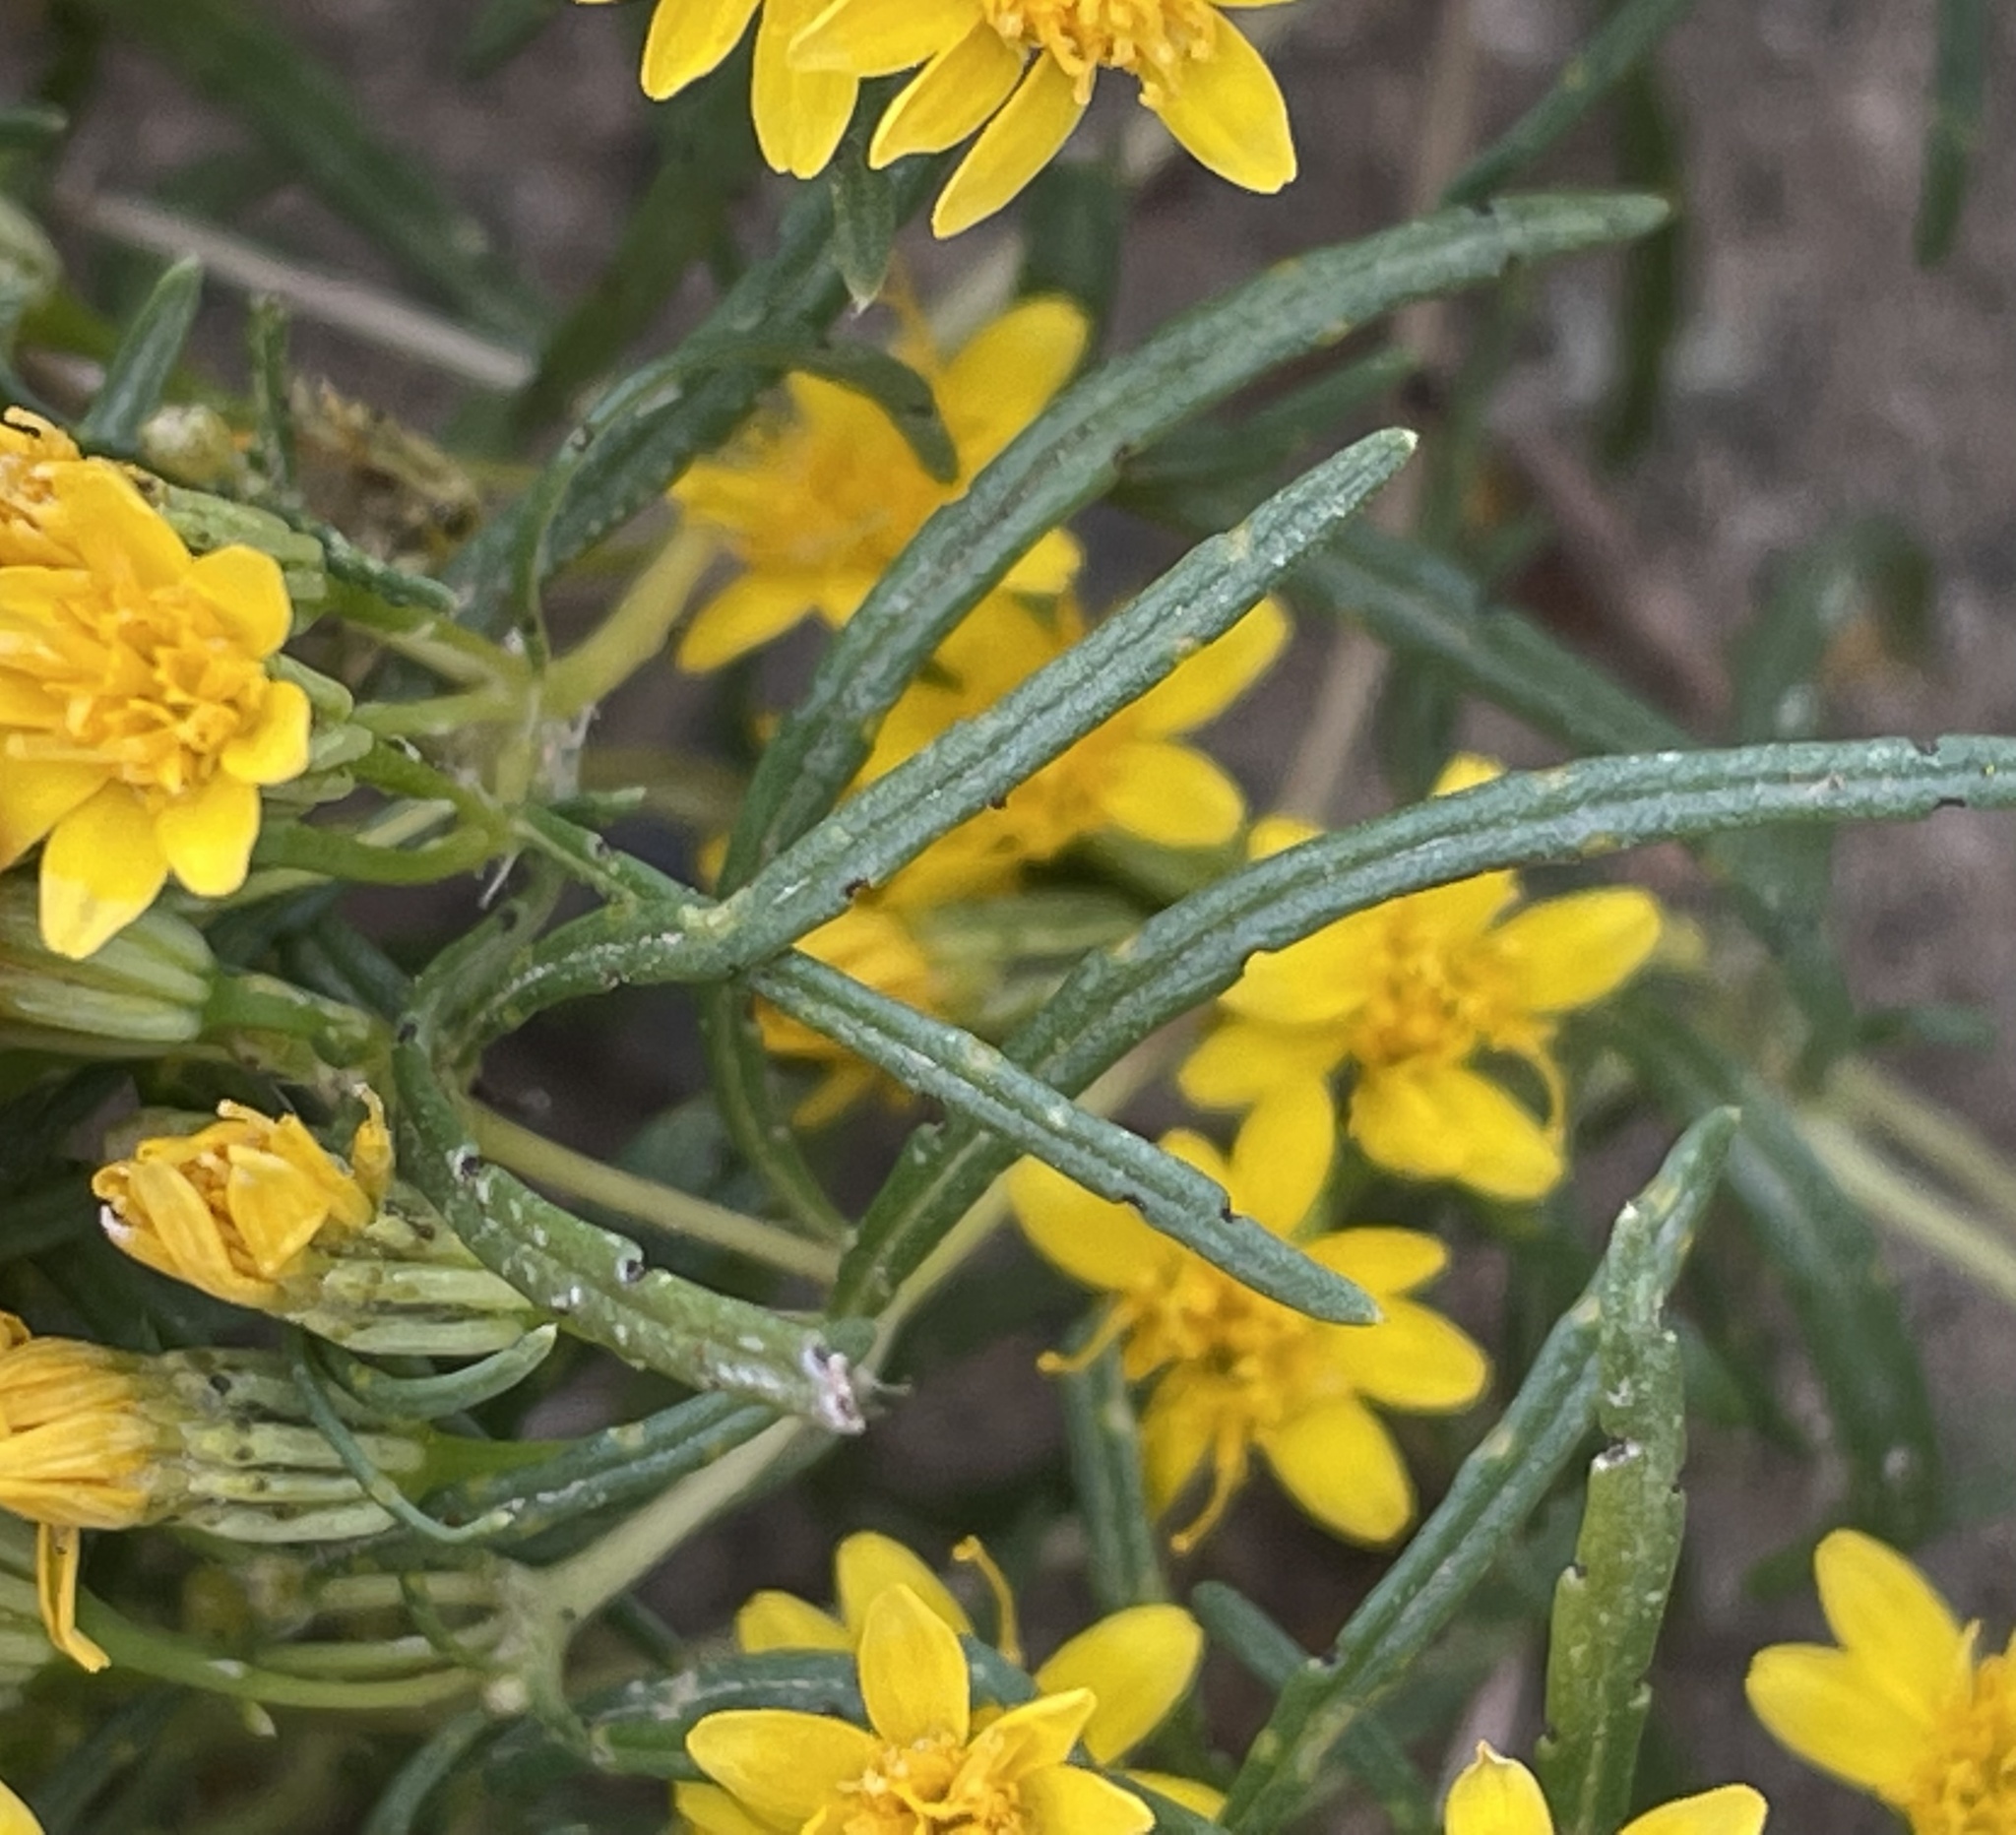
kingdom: Plantae
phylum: Tracheophyta
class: Magnoliopsida
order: Asterales
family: Asteraceae
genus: Pectis
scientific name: Pectis papposa
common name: Many-bristle chinchweed
